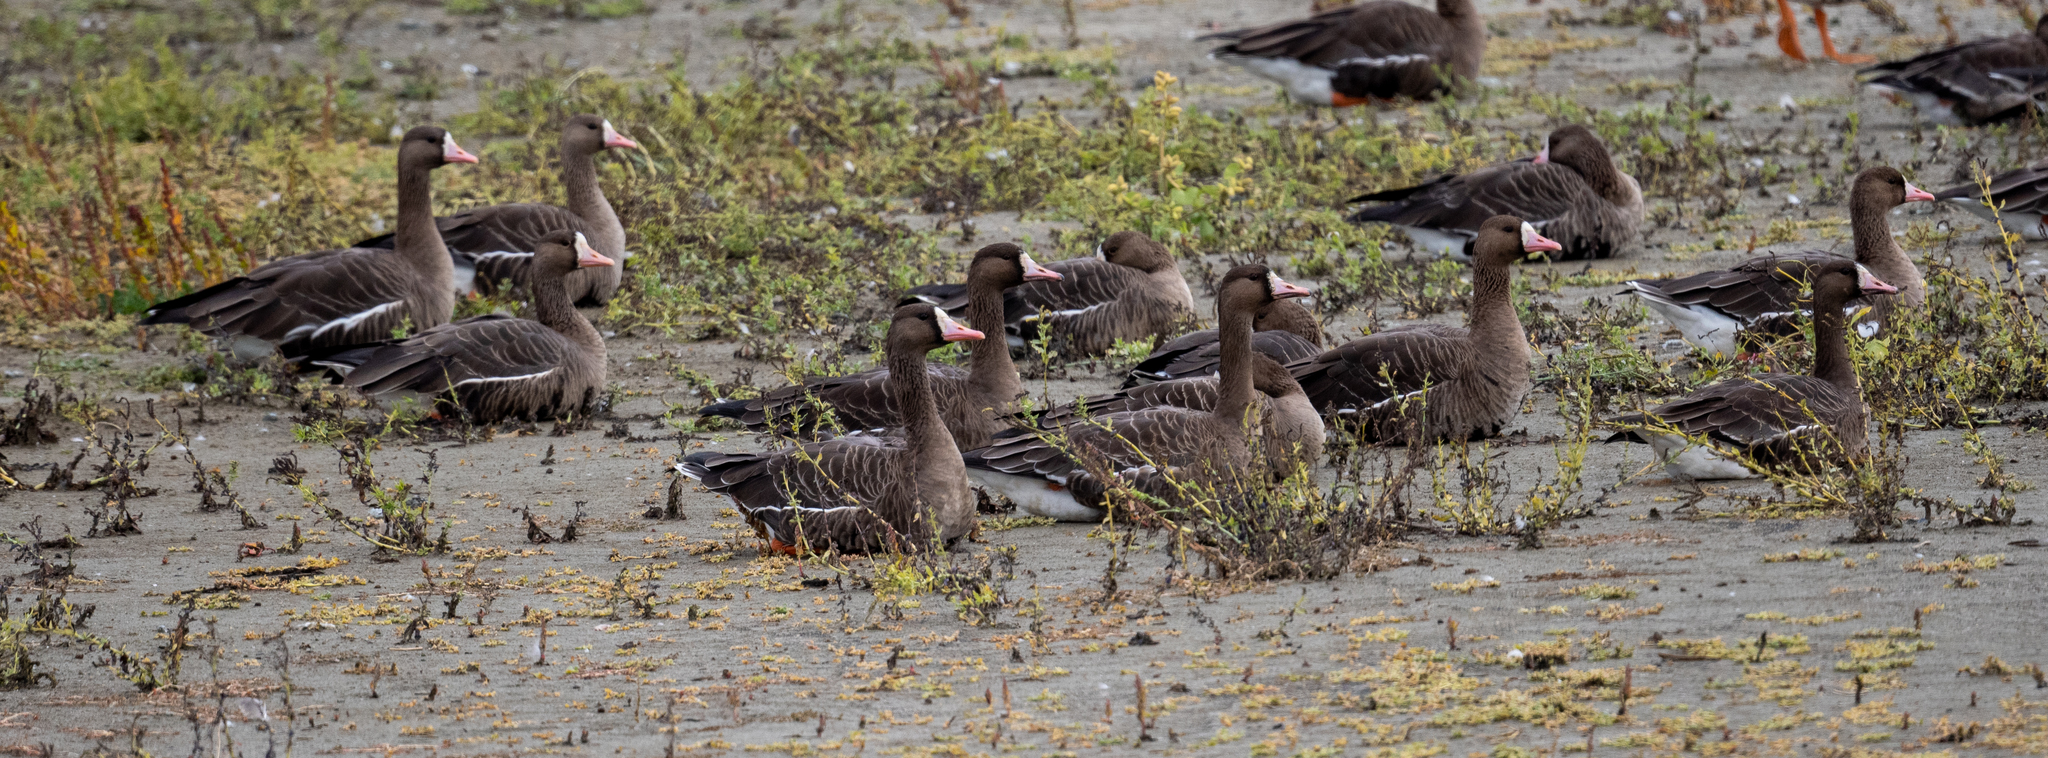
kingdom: Animalia
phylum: Chordata
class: Aves
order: Anseriformes
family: Anatidae
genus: Anser
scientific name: Anser albifrons
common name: Greater white-fronted goose
